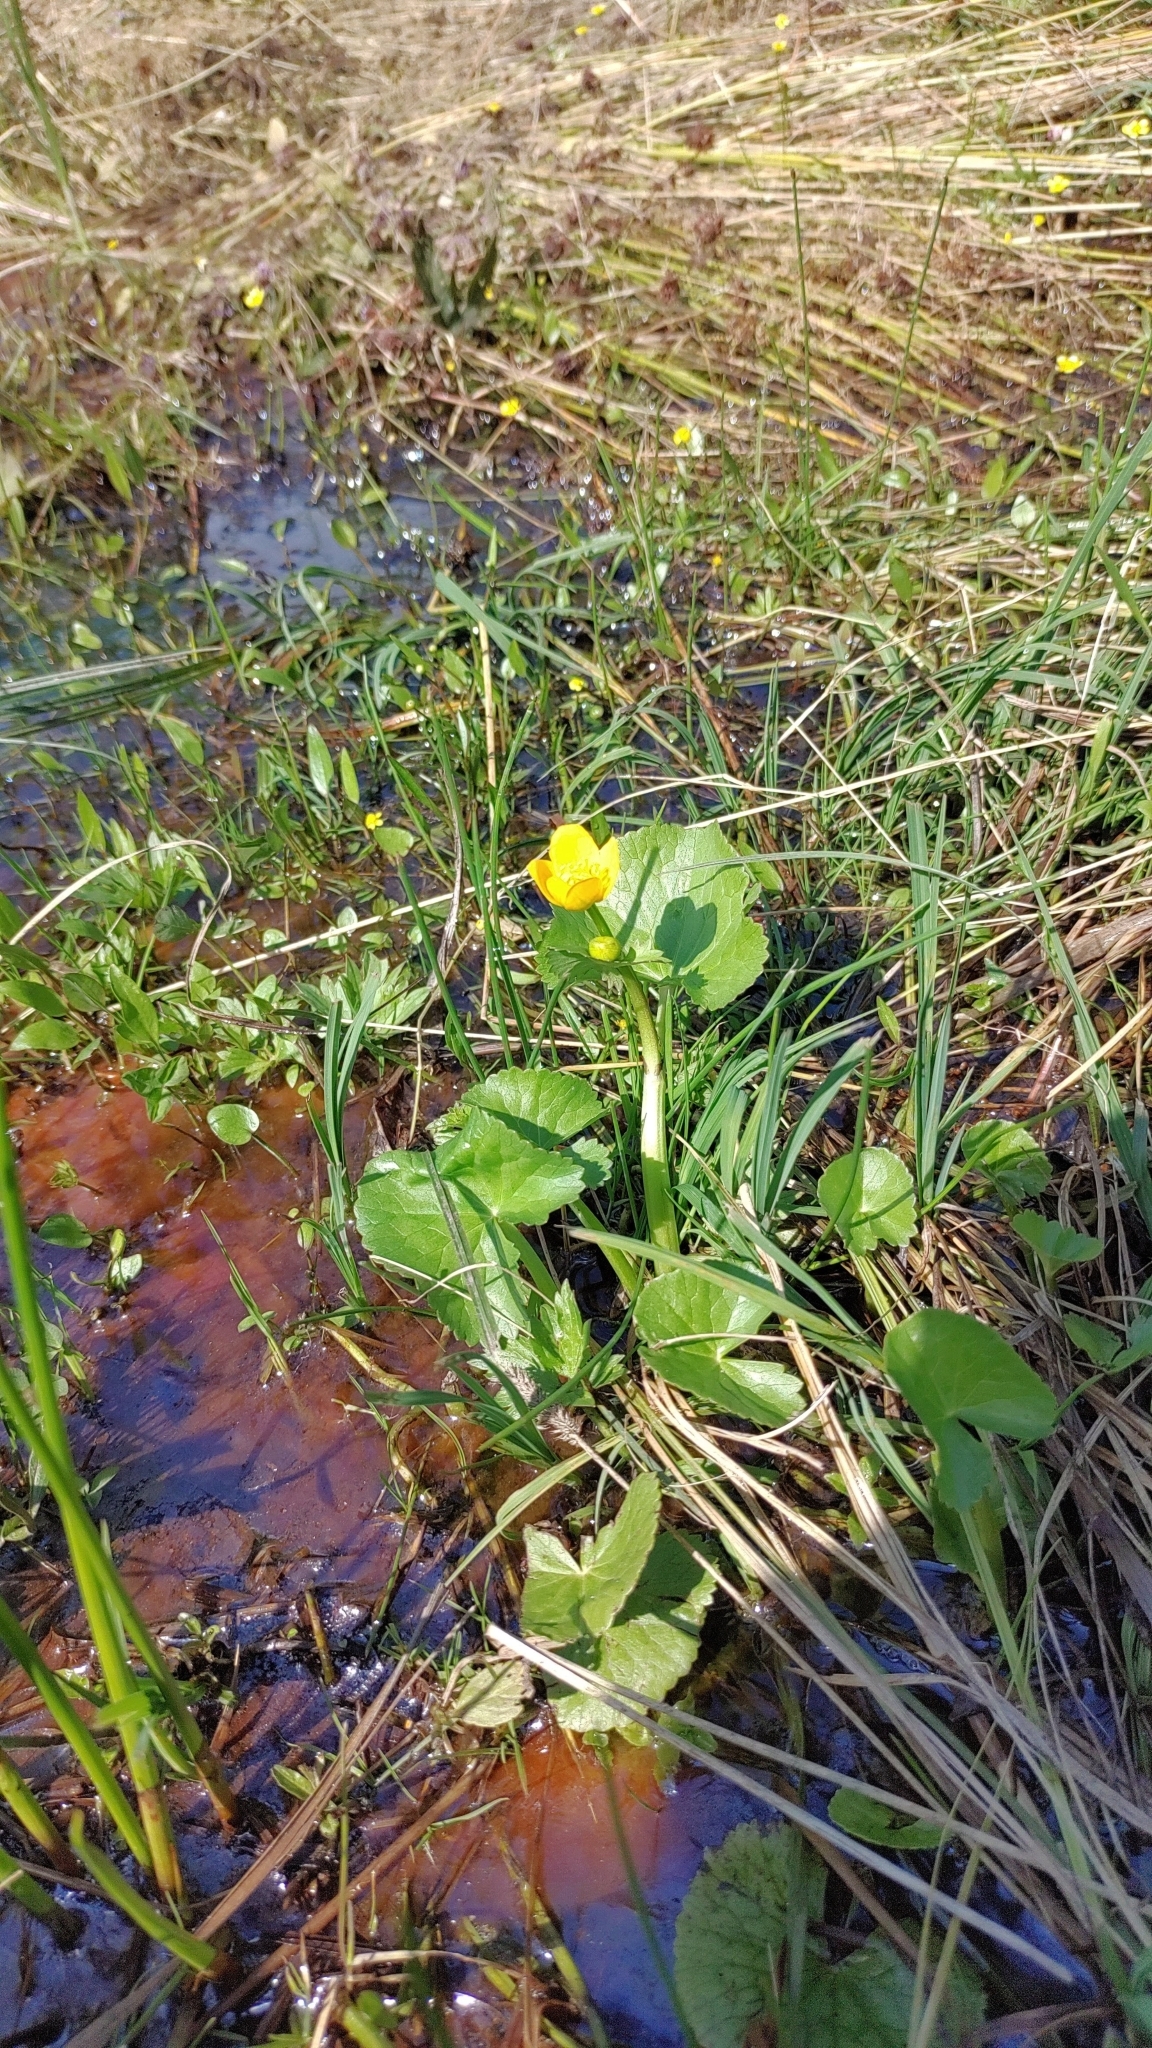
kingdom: Plantae
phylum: Tracheophyta
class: Magnoliopsida
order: Ranunculales
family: Ranunculaceae
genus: Caltha
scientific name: Caltha palustris
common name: Marsh marigold
